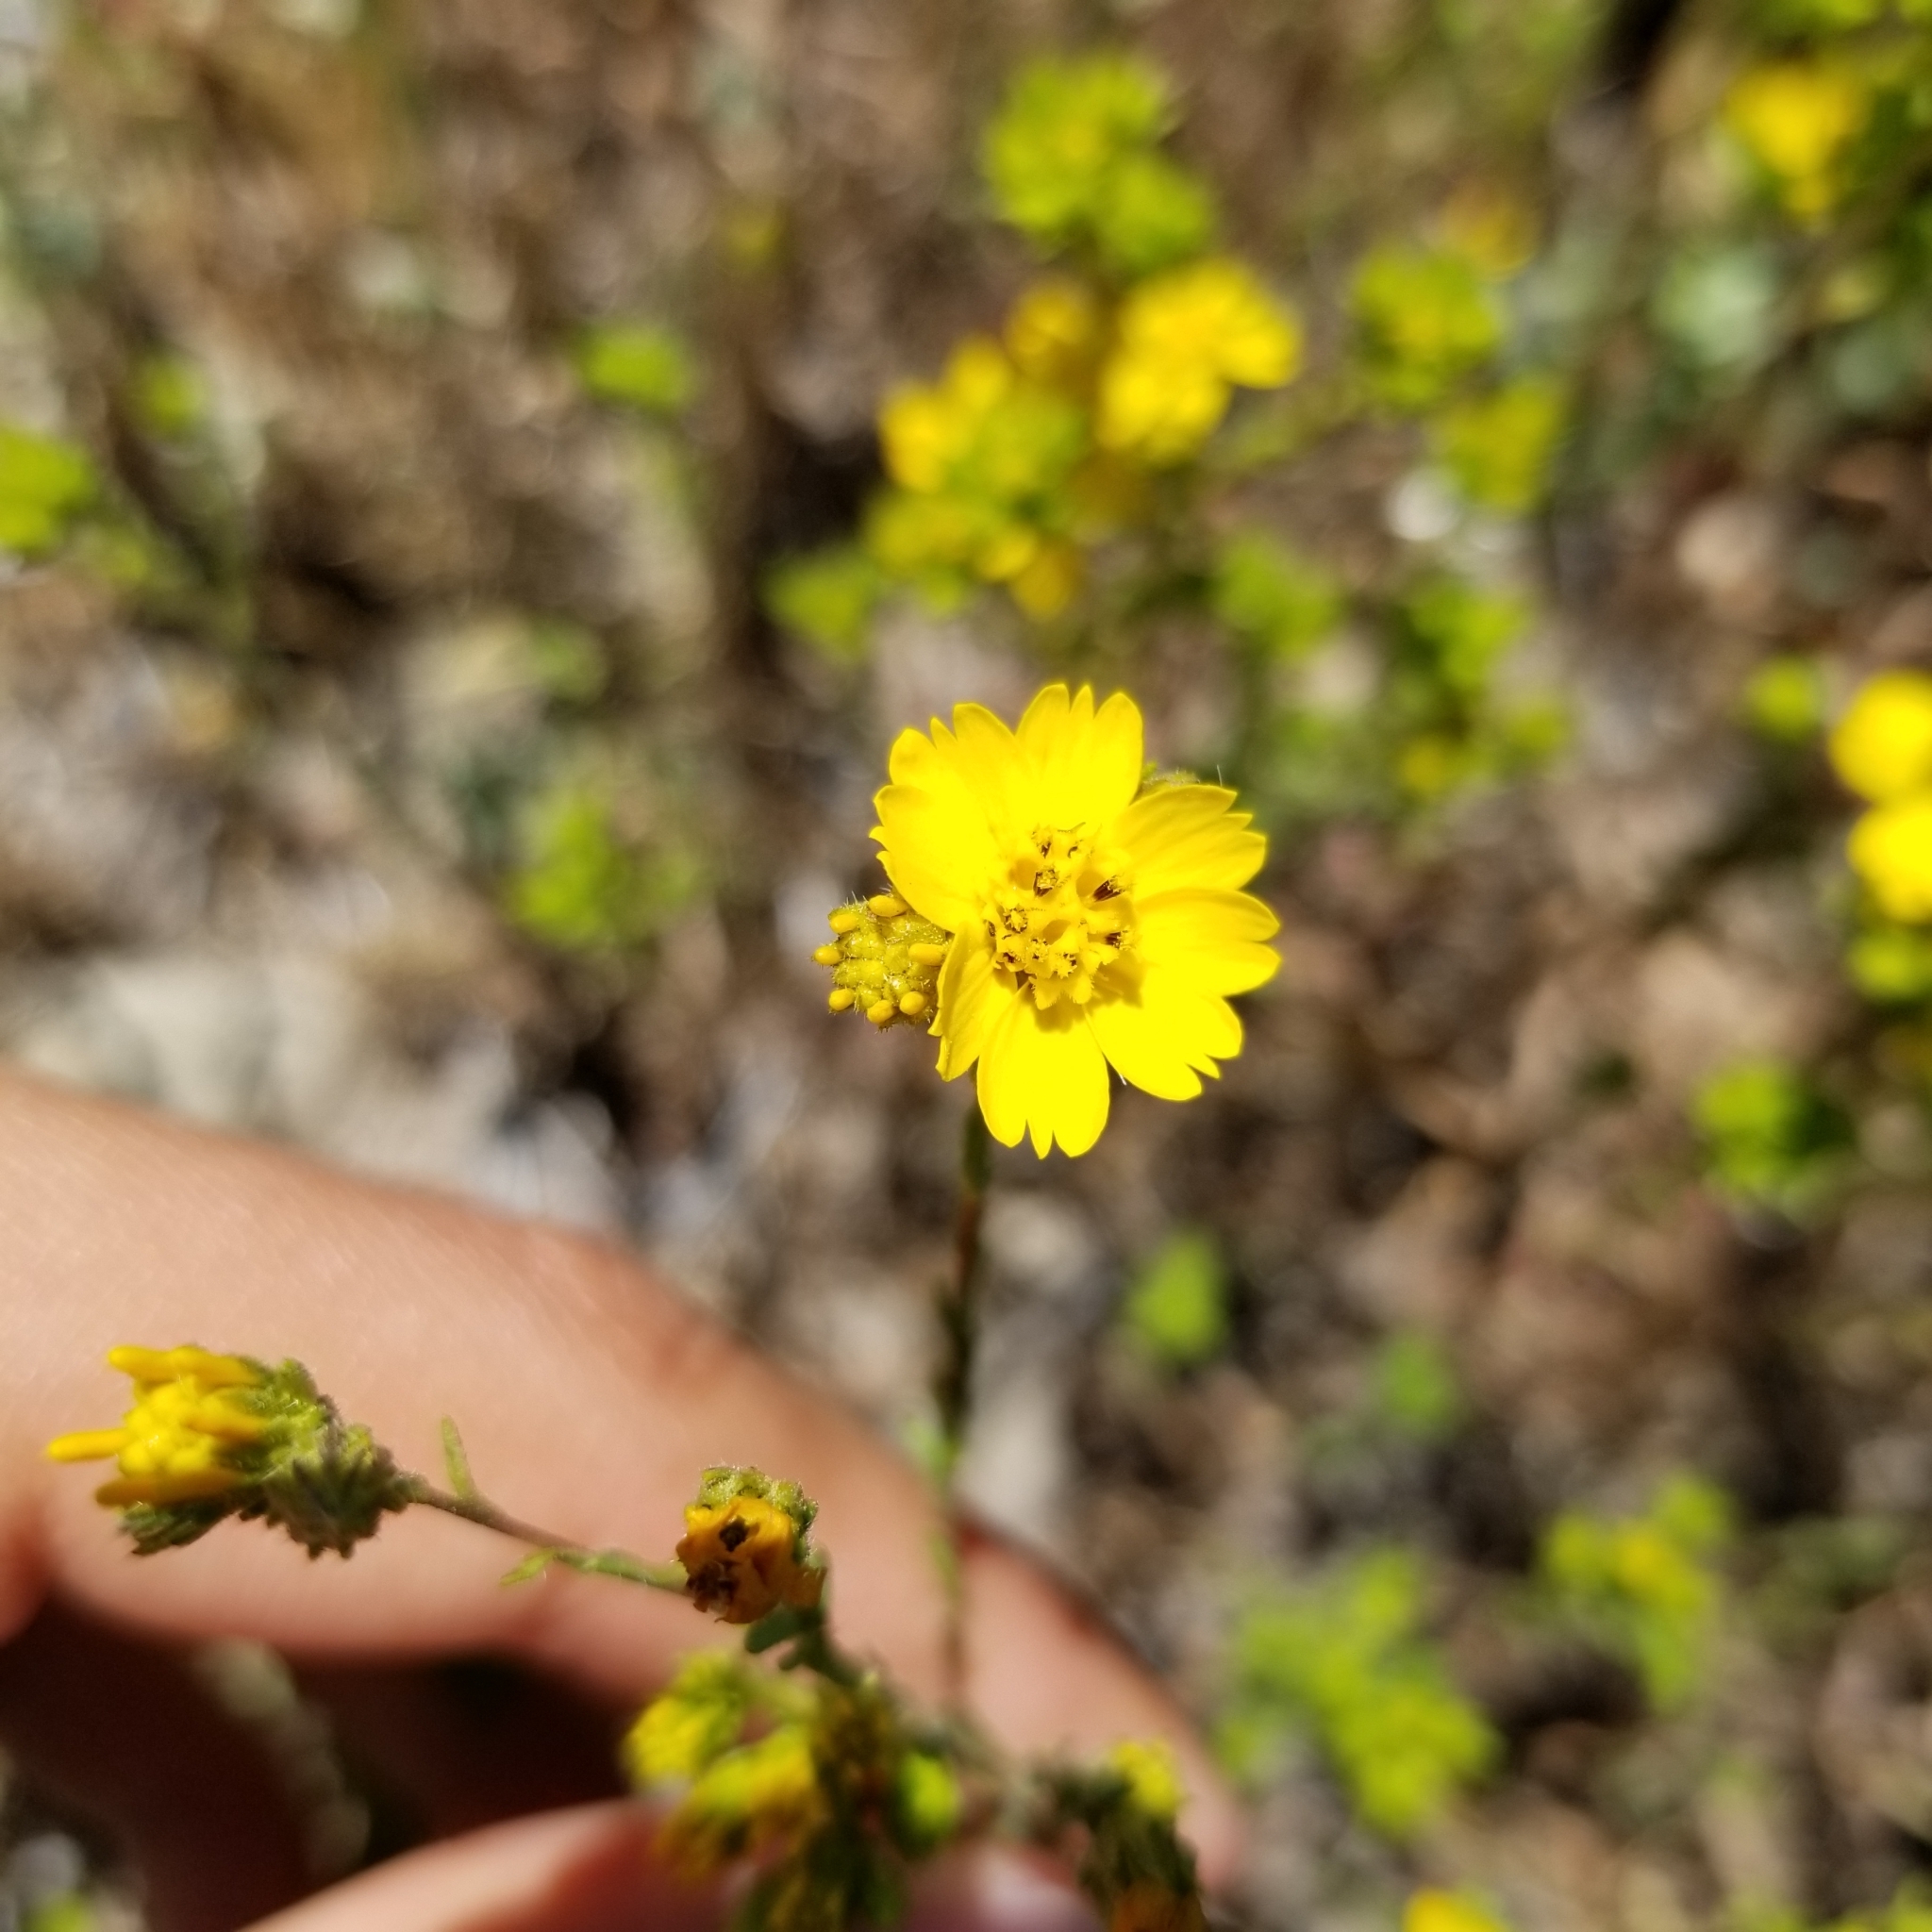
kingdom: Plantae
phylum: Tracheophyta
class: Magnoliopsida
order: Asterales
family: Asteraceae
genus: Deinandra
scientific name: Deinandra conjugens
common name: Otay tarplant
